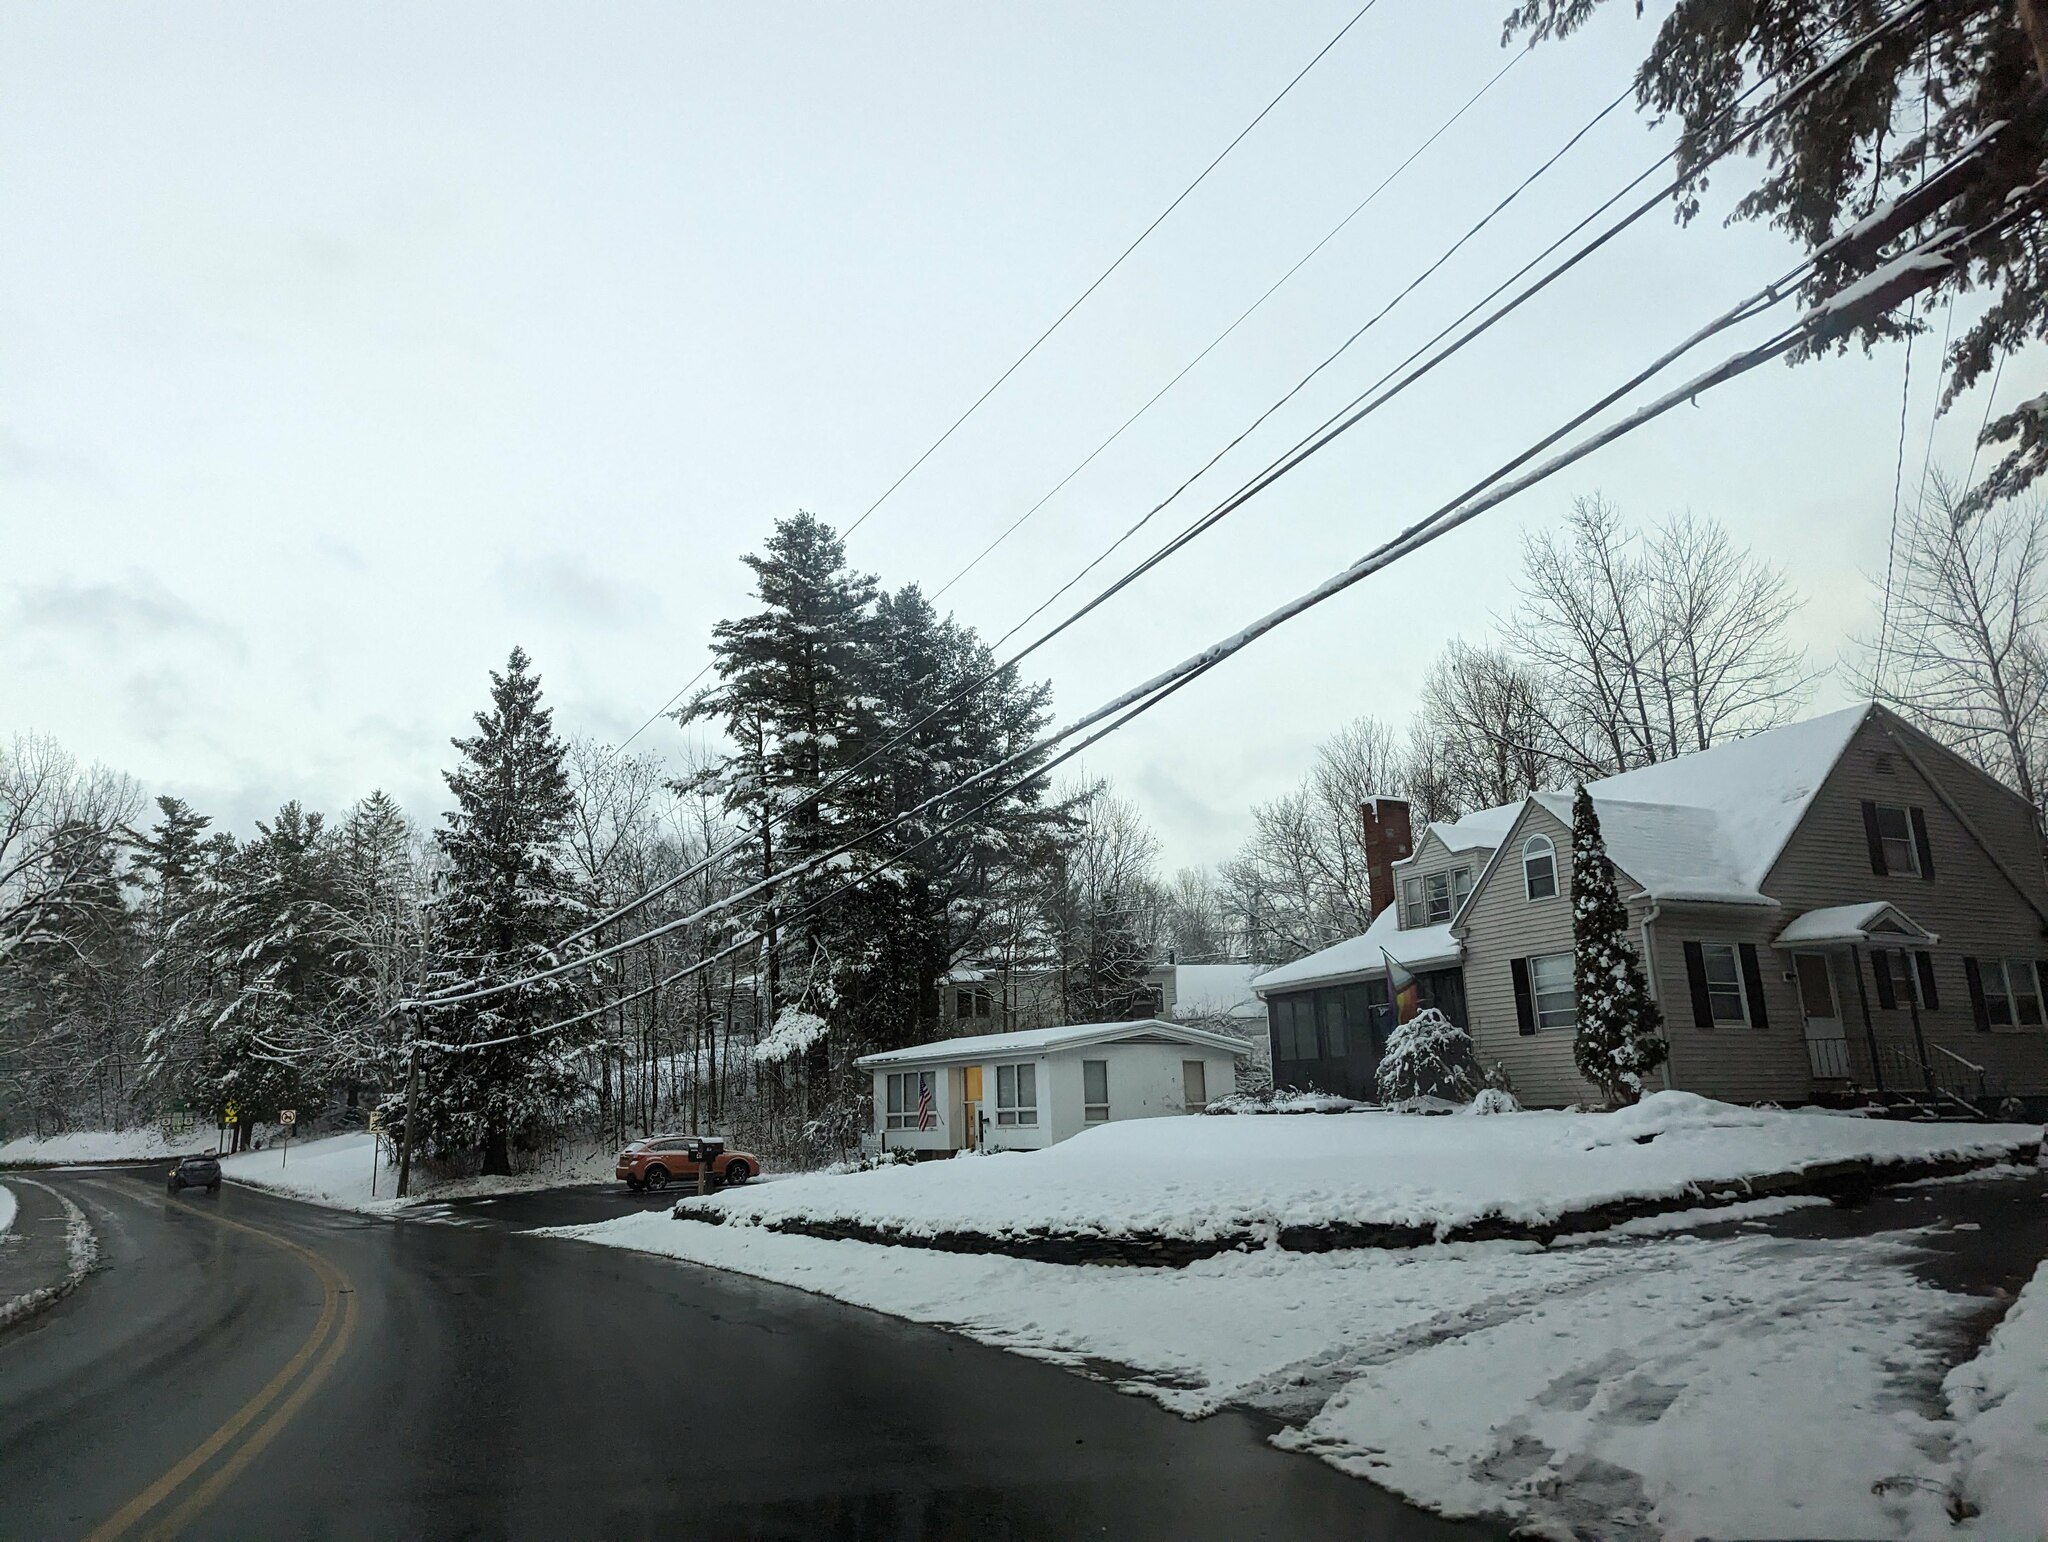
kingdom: Plantae
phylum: Tracheophyta
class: Pinopsida
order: Pinales
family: Pinaceae
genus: Pinus
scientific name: Pinus strobus
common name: Weymouth pine
